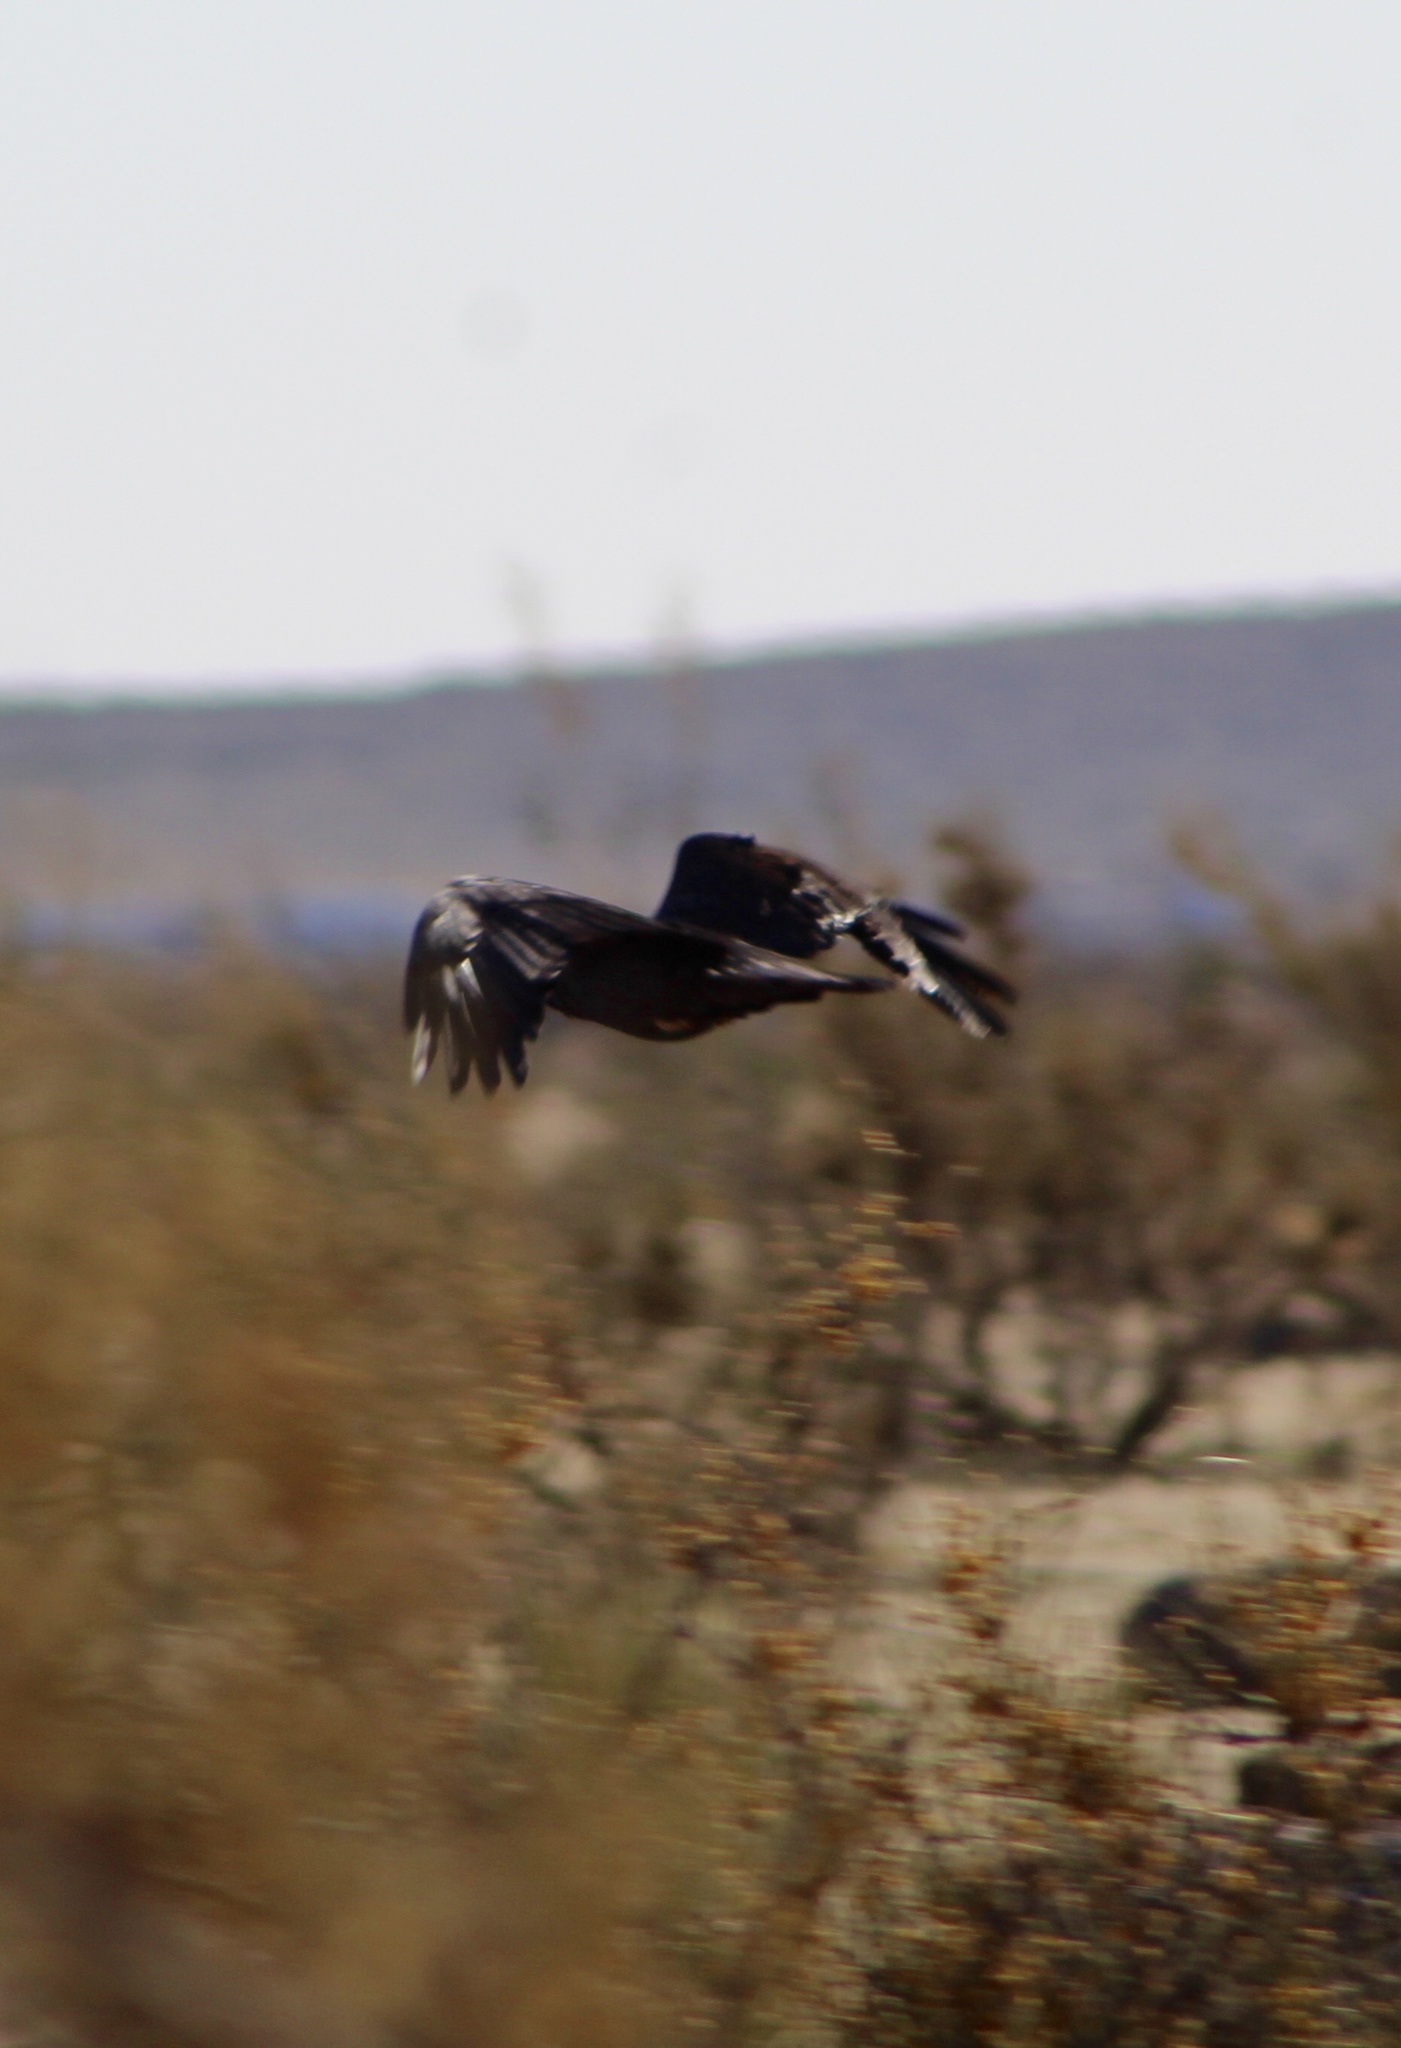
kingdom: Animalia
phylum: Chordata
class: Aves
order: Passeriformes
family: Corvidae
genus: Corvus
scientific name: Corvus corax
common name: Common raven
